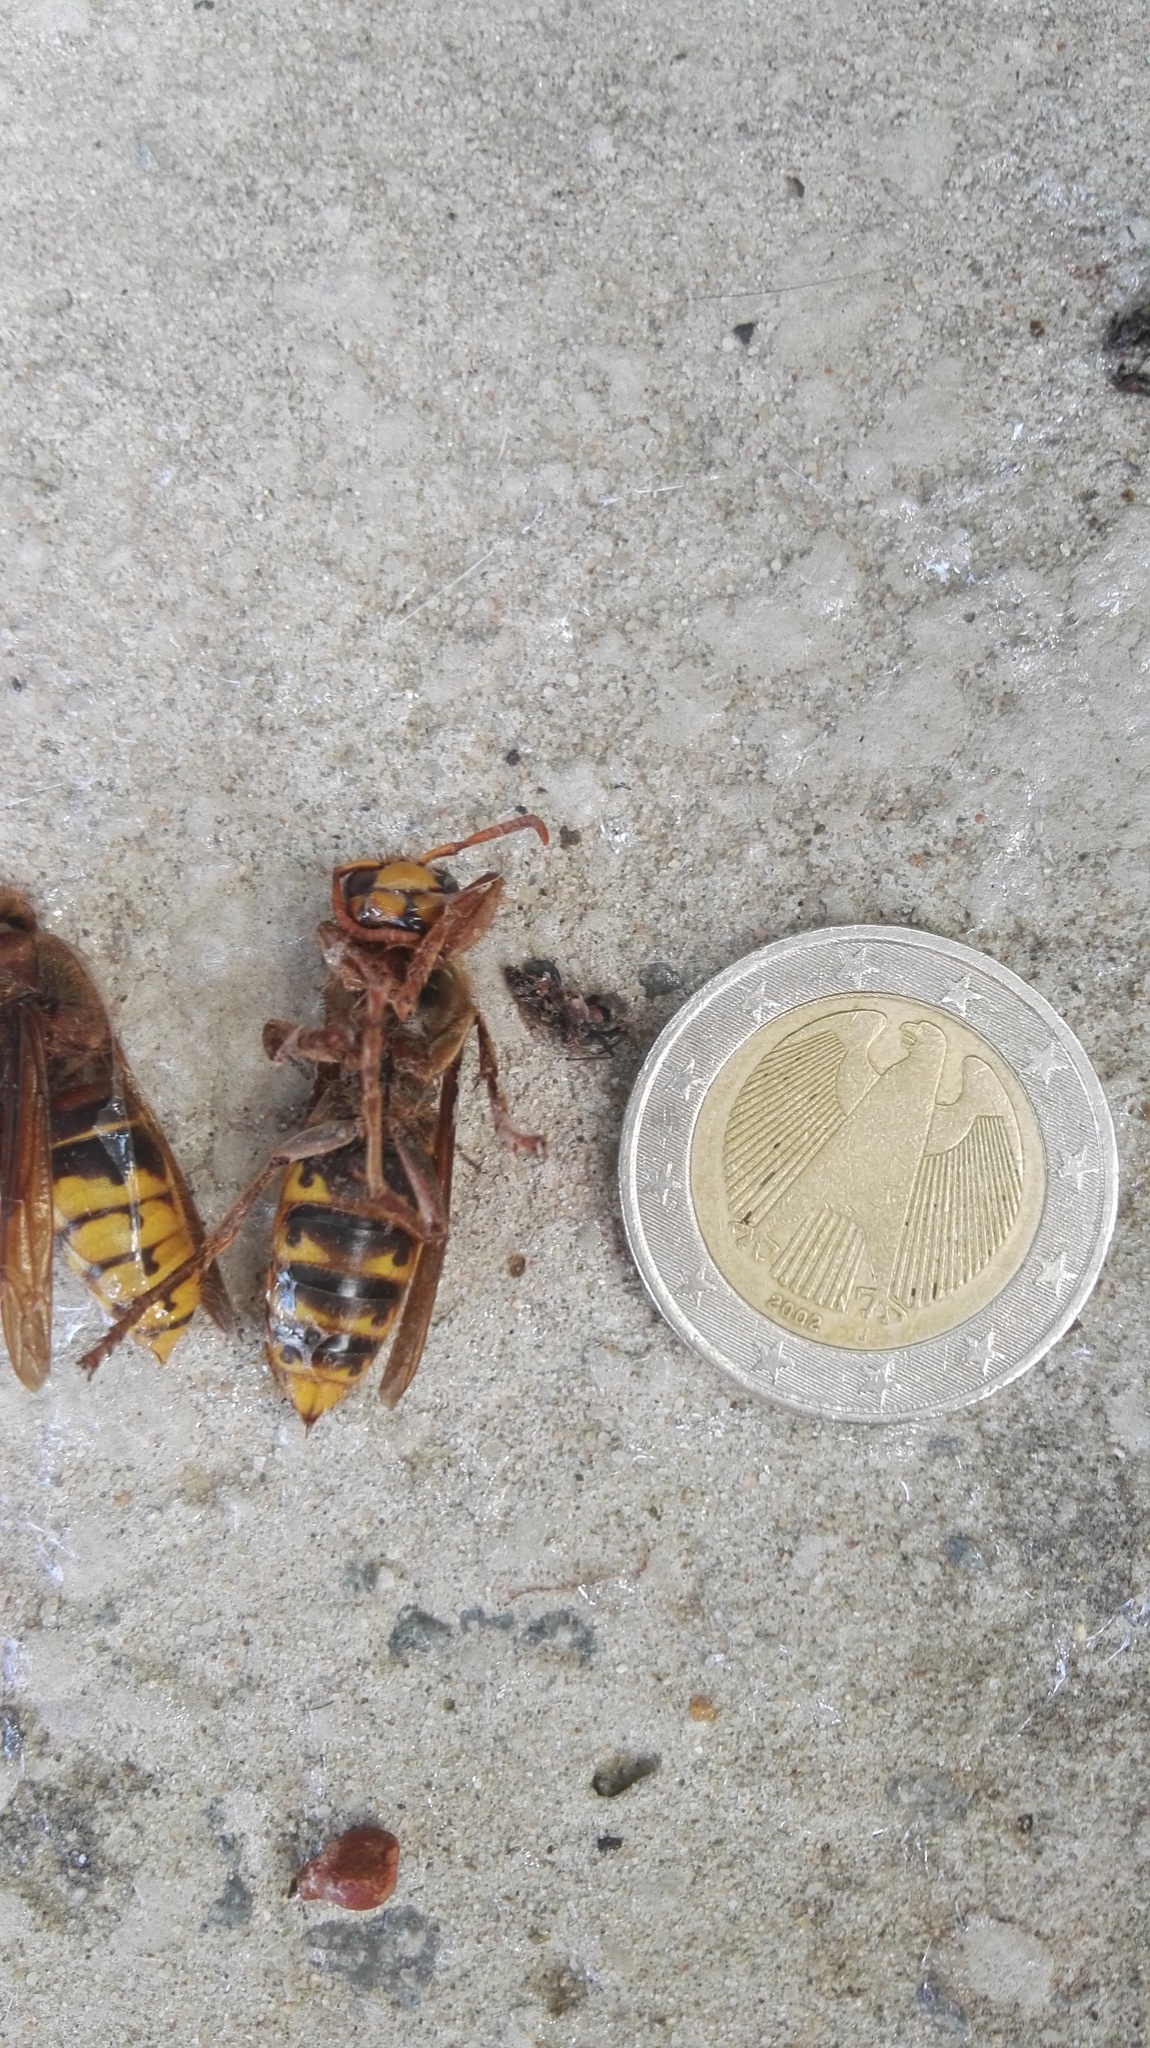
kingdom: Animalia
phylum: Arthropoda
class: Insecta
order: Hymenoptera
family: Vespidae
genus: Vespa
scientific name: Vespa crabro
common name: Hornet
